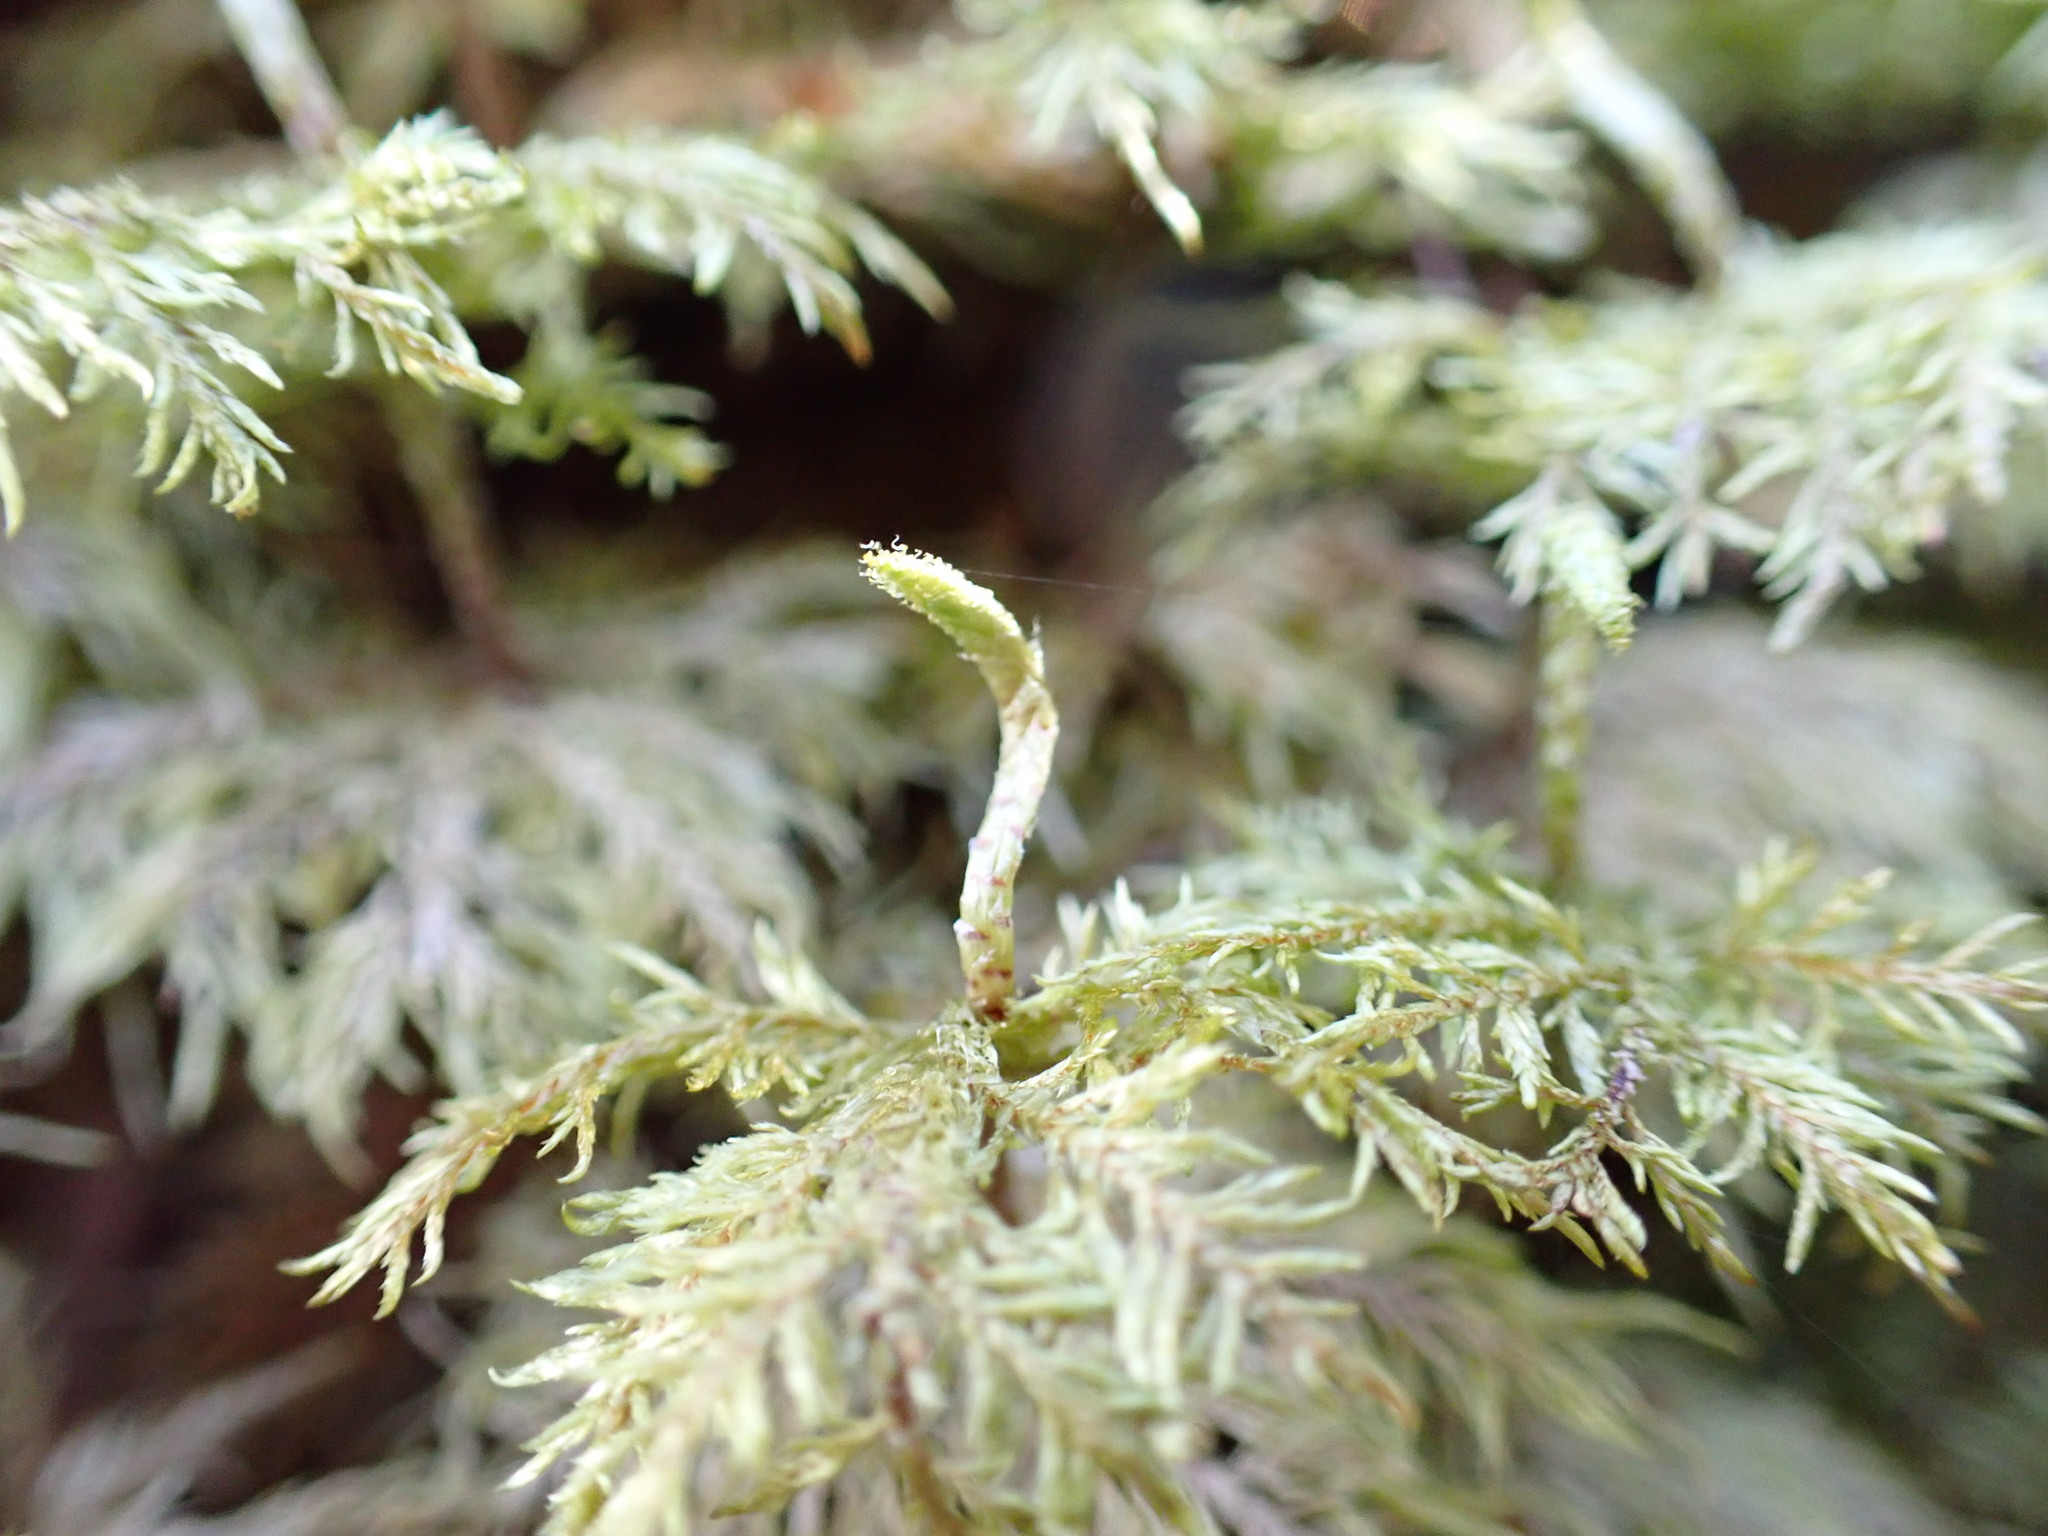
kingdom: Plantae
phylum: Bryophyta
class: Bryopsida
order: Hypnales
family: Hylocomiaceae
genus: Hylocomium
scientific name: Hylocomium splendens
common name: Stairstep moss
